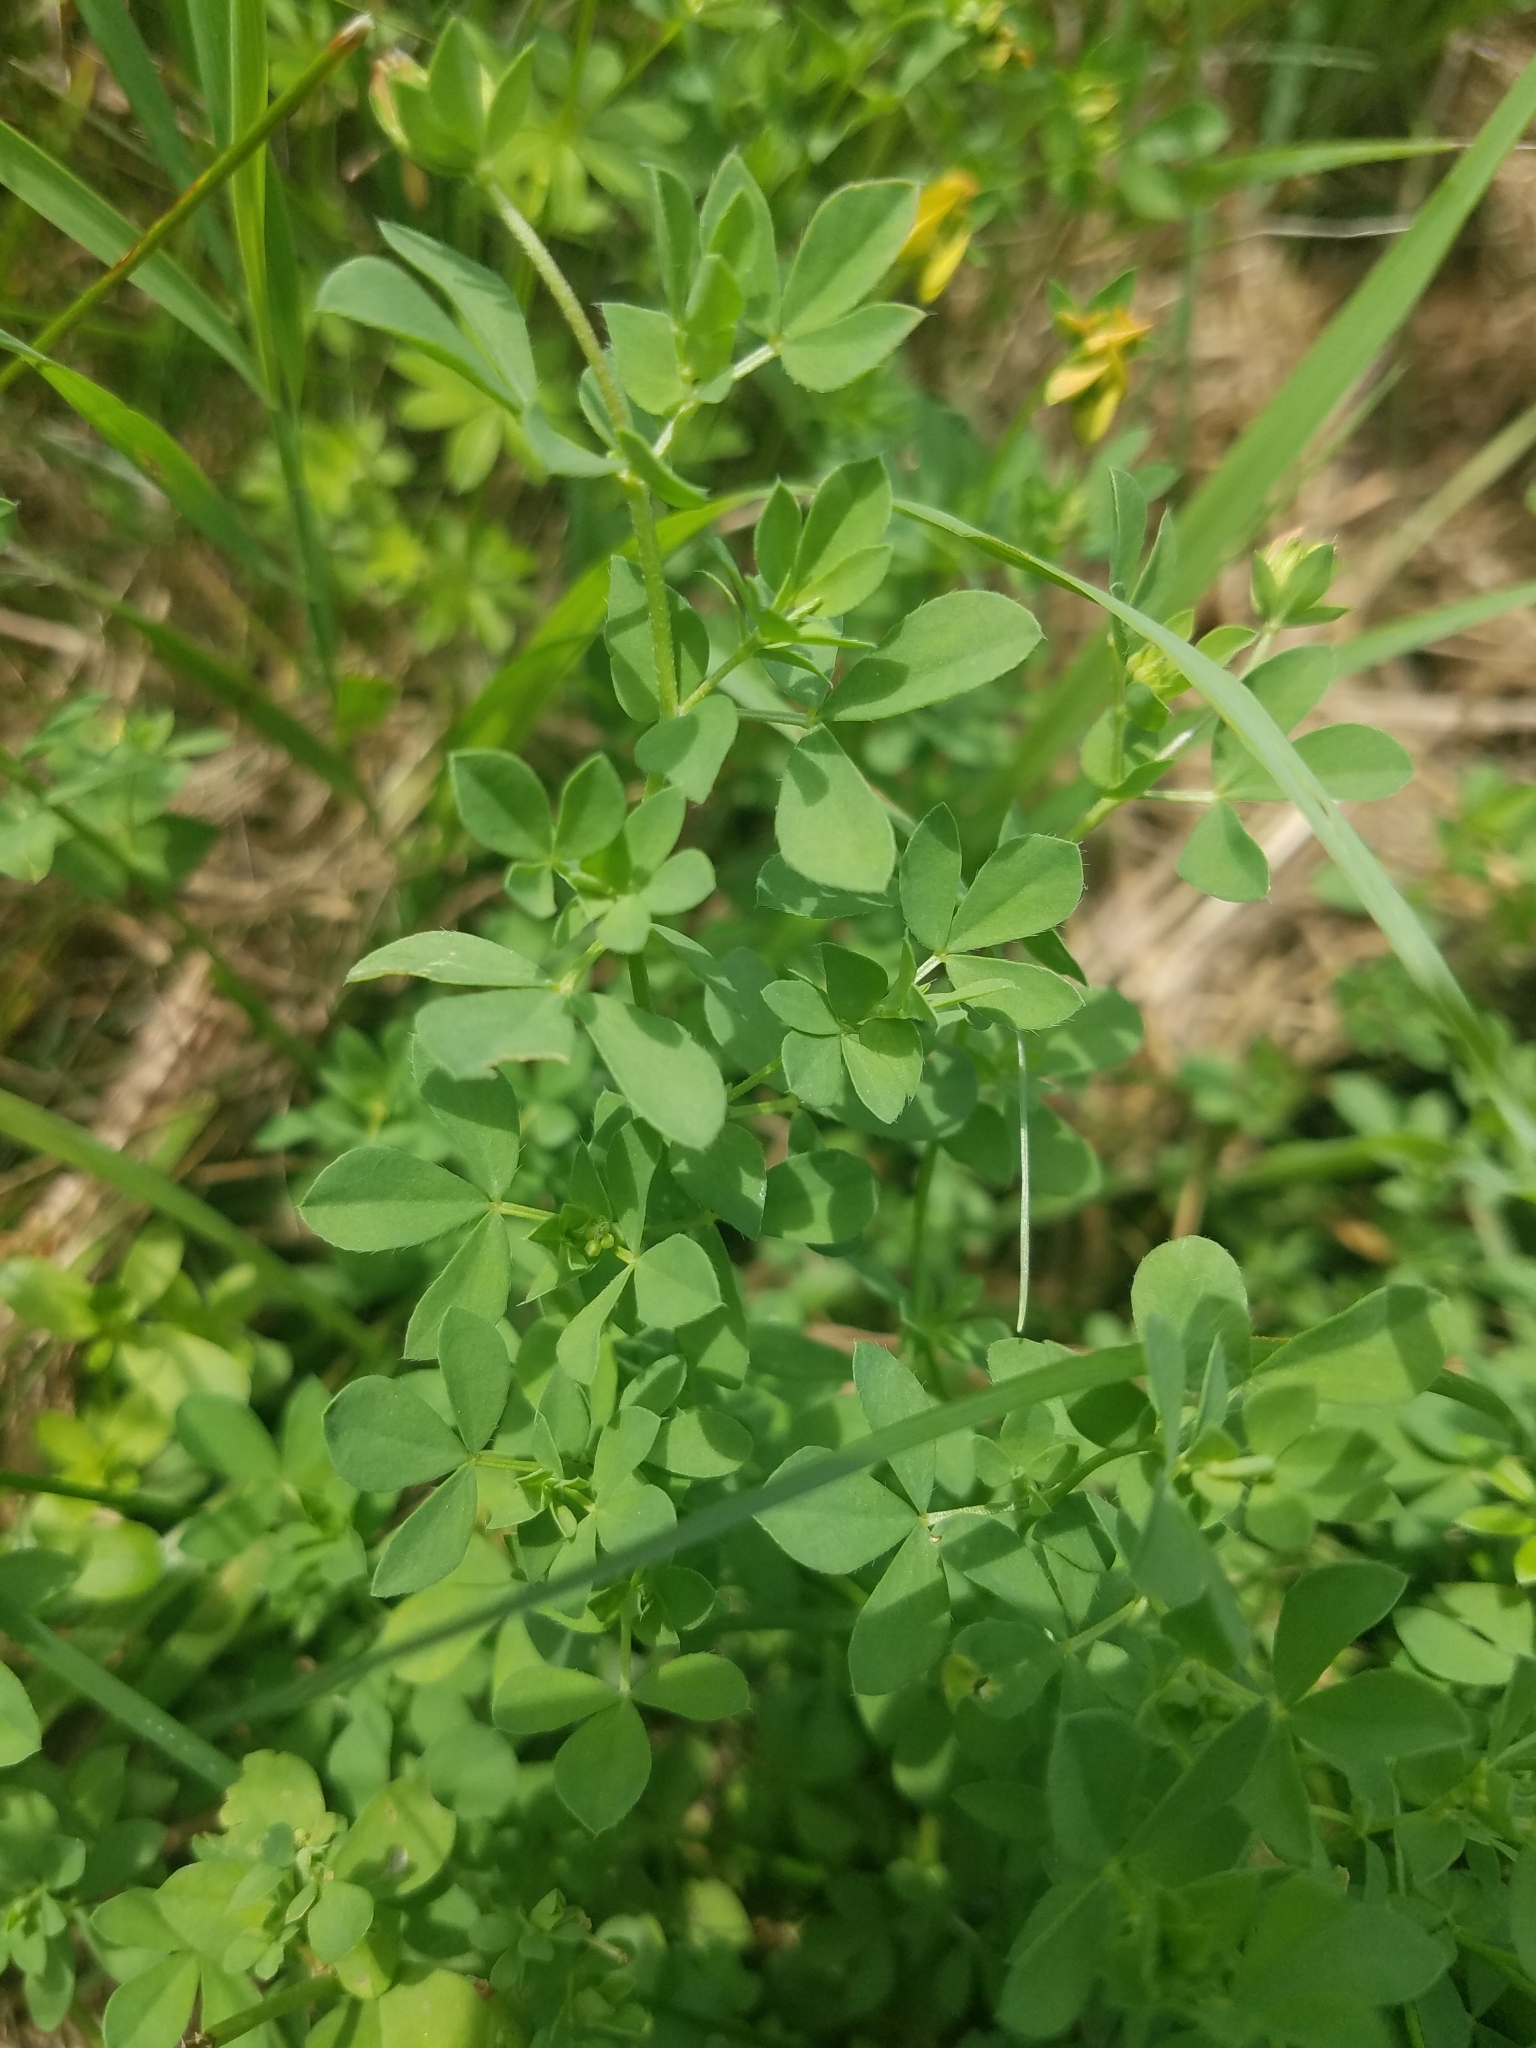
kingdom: Plantae
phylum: Tracheophyta
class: Magnoliopsida
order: Fabales
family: Fabaceae
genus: Lotus
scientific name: Lotus corniculatus
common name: Common bird's-foot-trefoil
